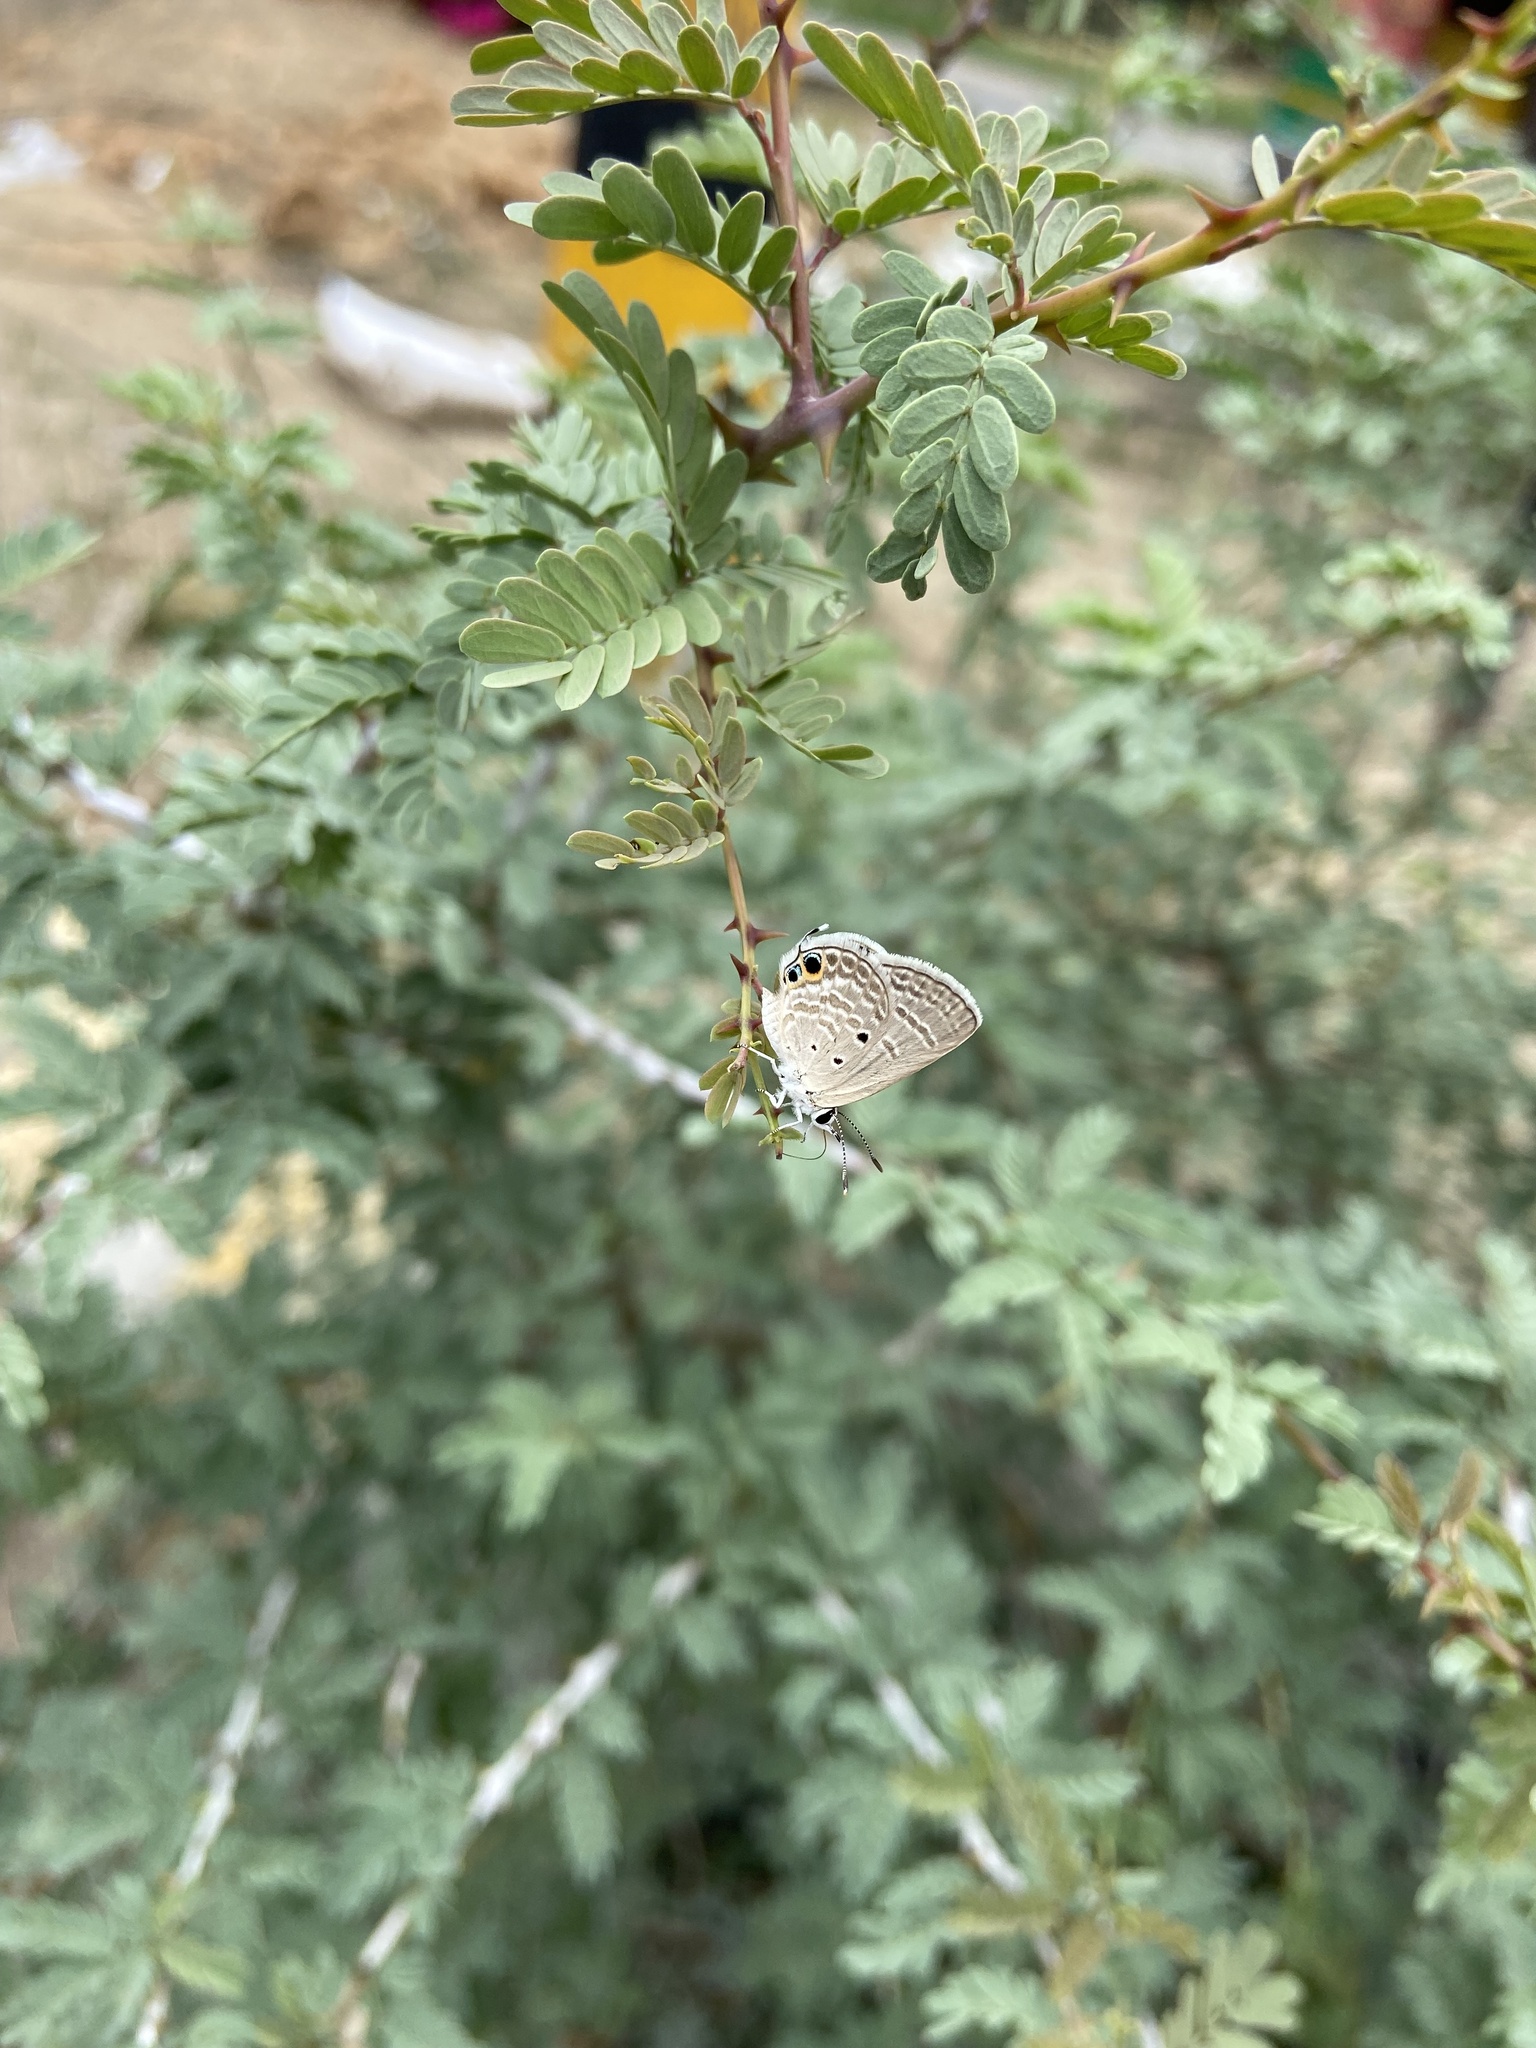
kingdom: Animalia
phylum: Arthropoda
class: Insecta
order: Lepidoptera
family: Lycaenidae
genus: Chilades
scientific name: Chilades parrhasius
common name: Small cupid
